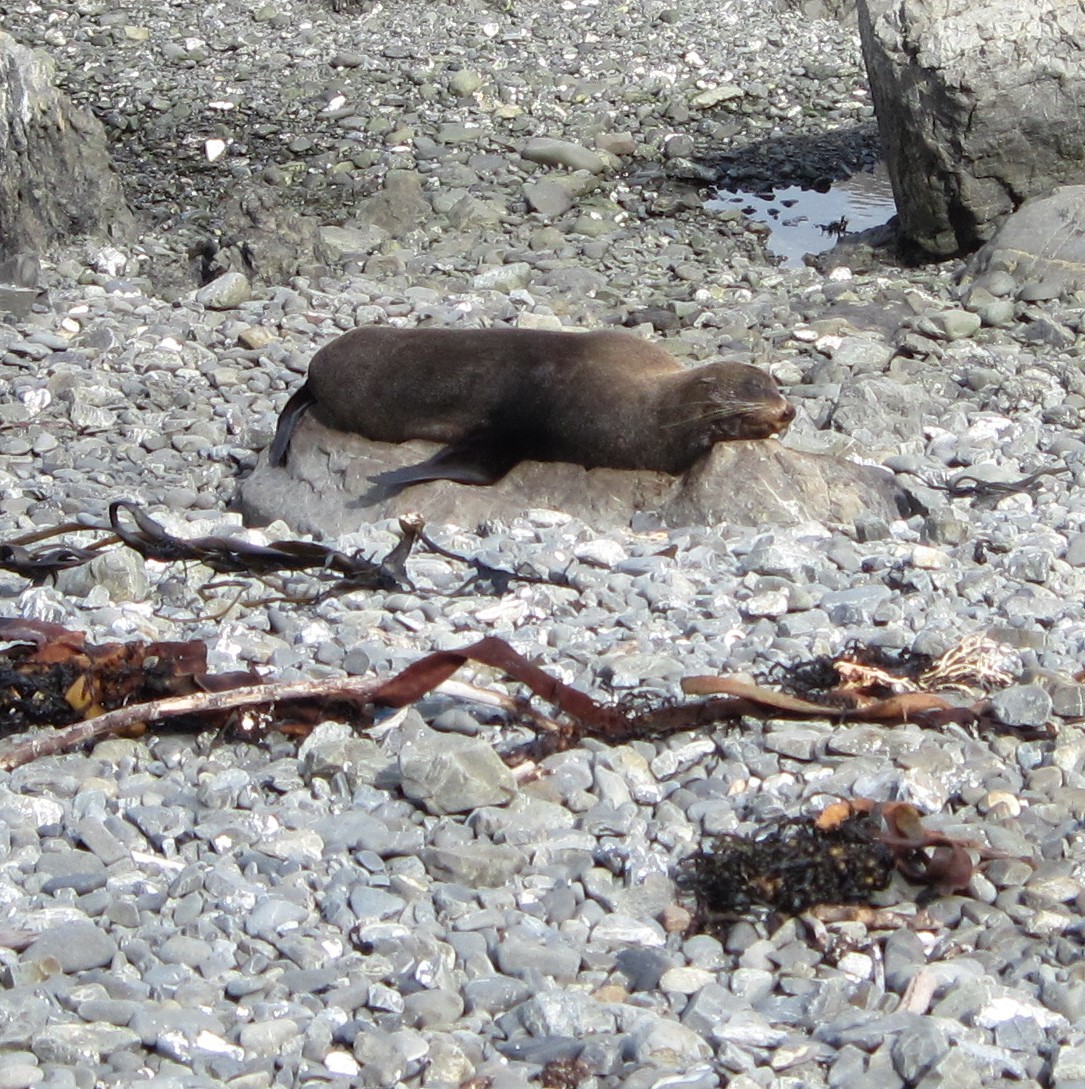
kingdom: Animalia
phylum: Chordata
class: Mammalia
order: Carnivora
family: Otariidae
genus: Arctocephalus
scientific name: Arctocephalus forsteri
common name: New zealand fur seal
